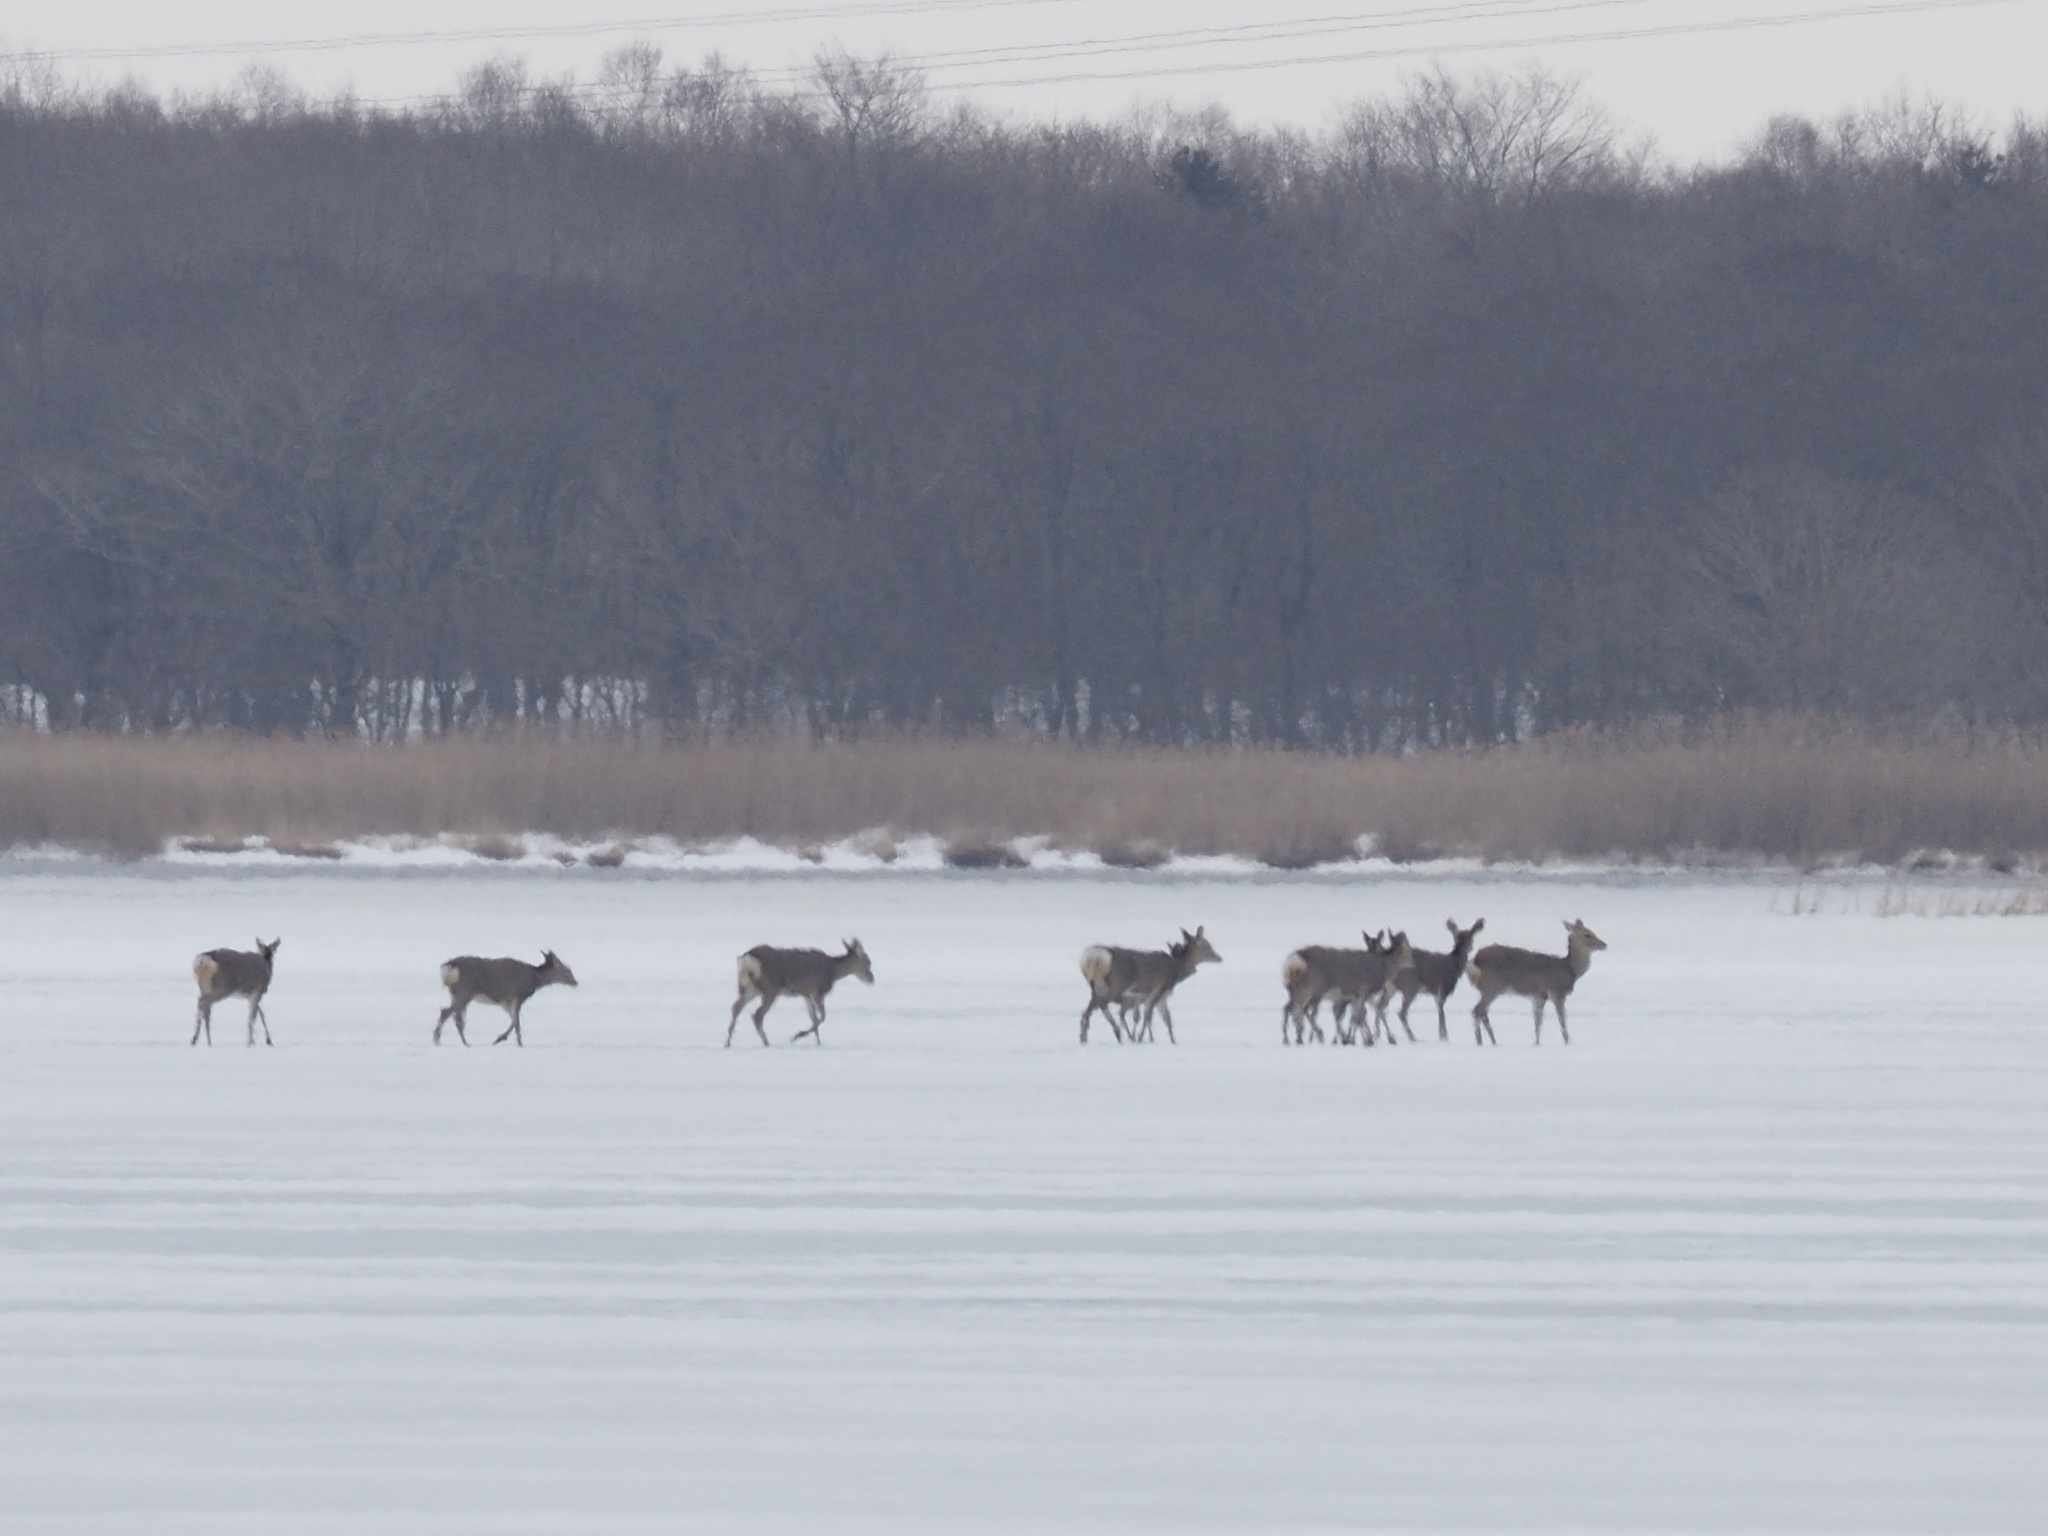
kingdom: Animalia
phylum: Chordata
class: Mammalia
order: Artiodactyla
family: Cervidae
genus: Cervus
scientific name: Cervus nippon
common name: Sika deer
